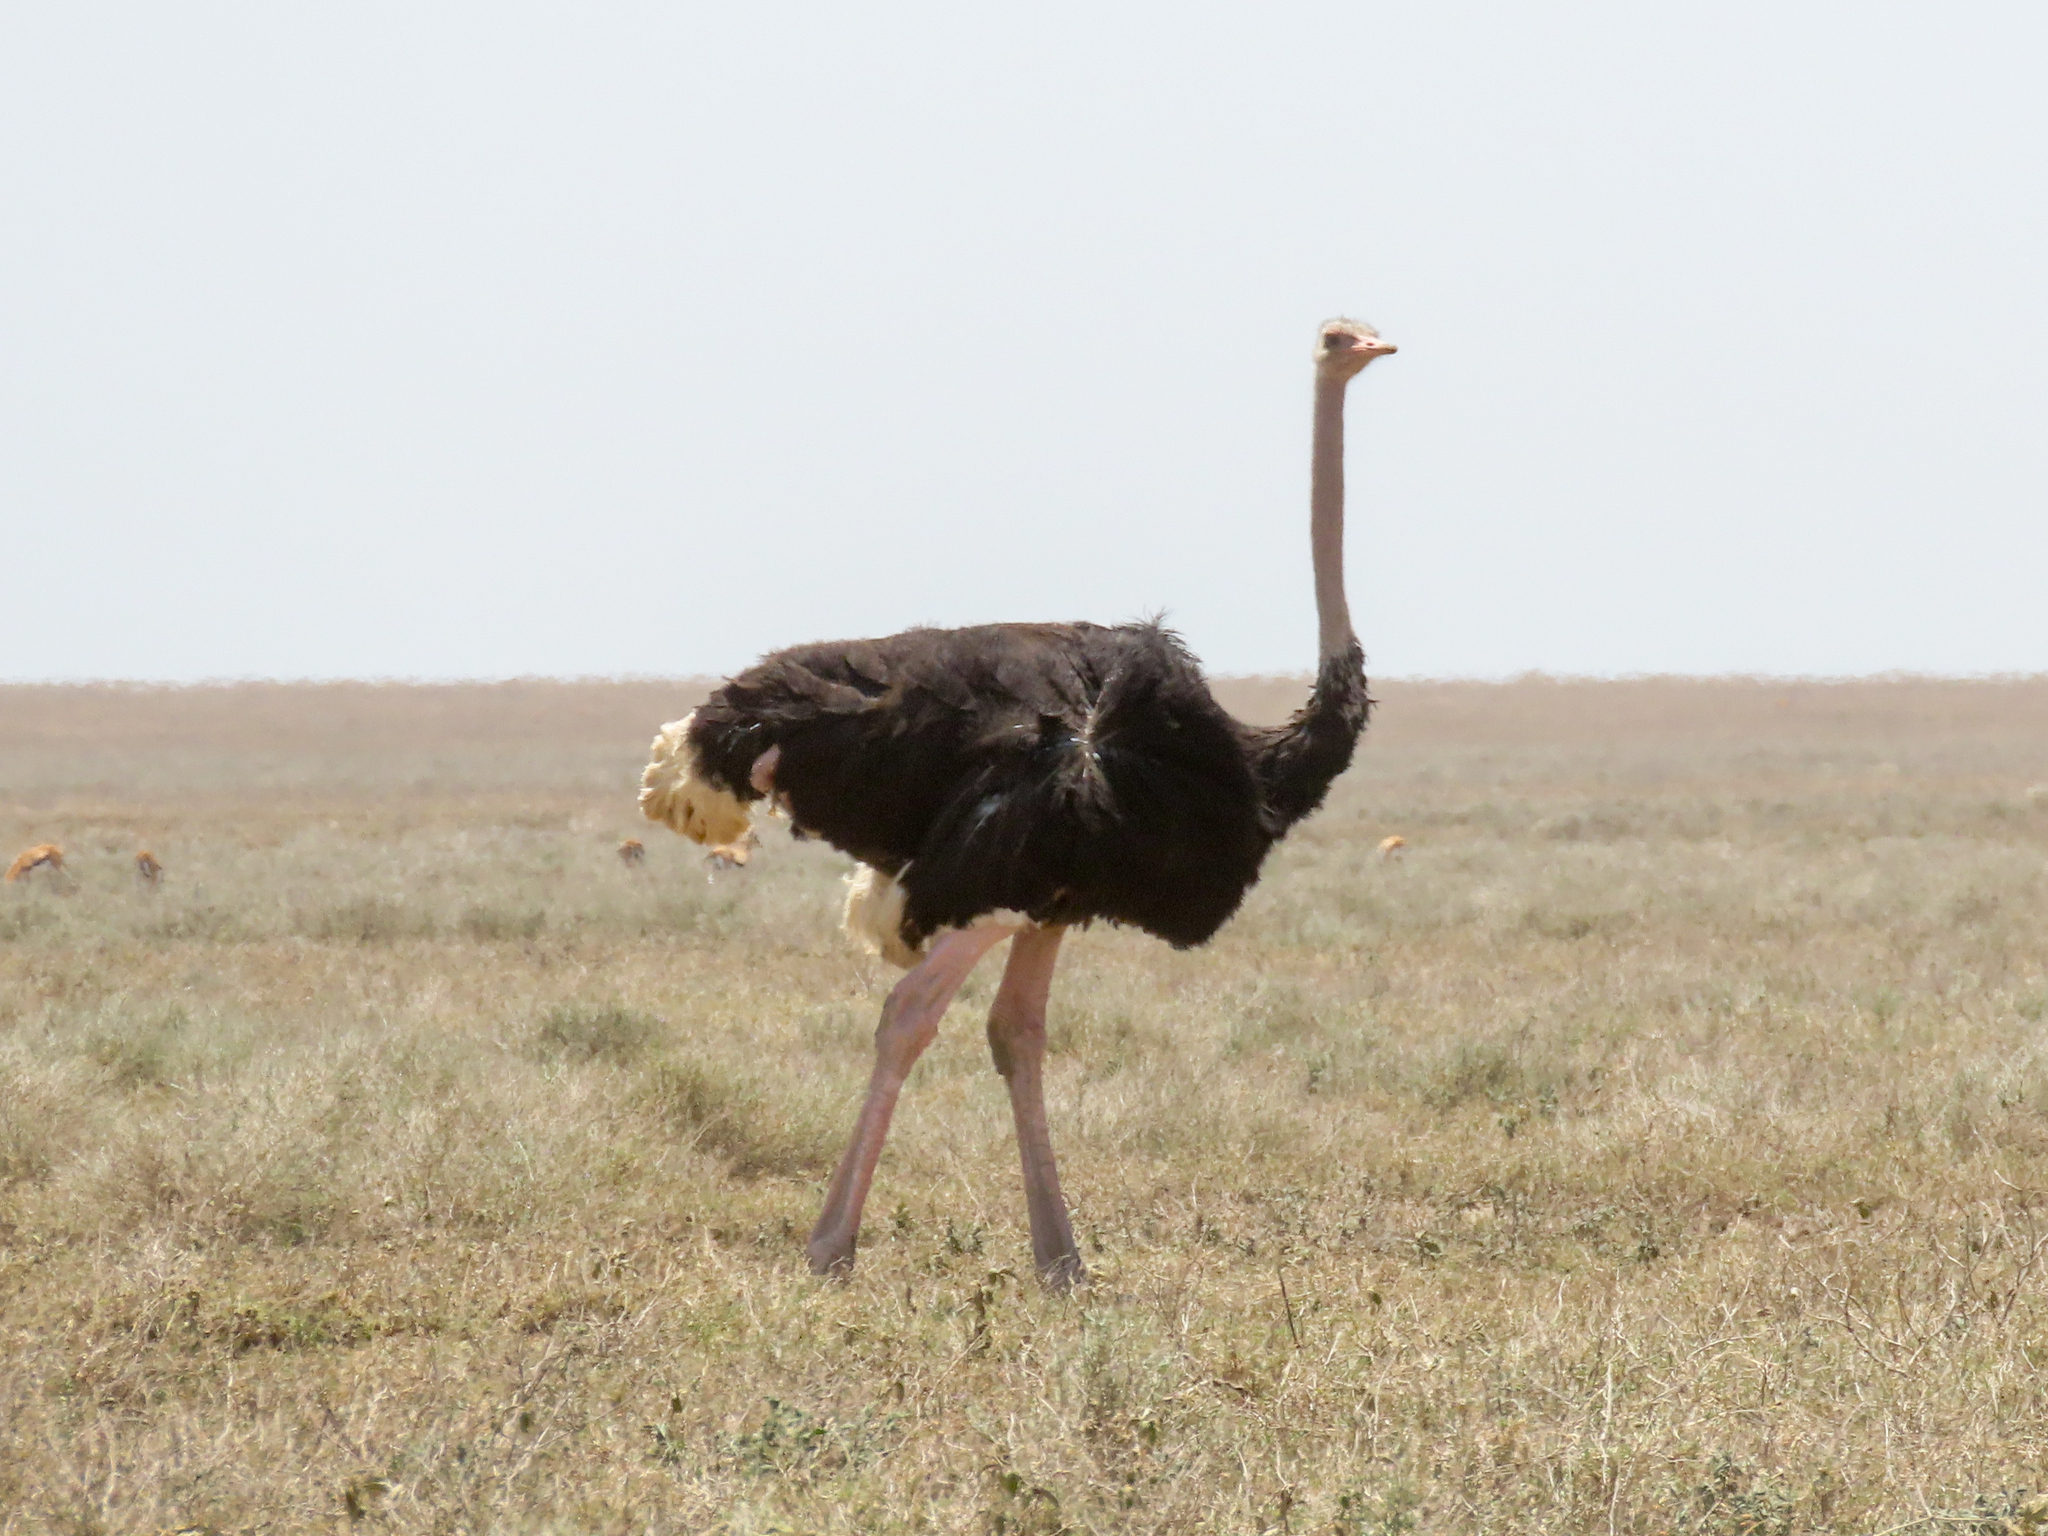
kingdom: Animalia
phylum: Chordata
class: Aves
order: Struthioniformes
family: Struthionidae
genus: Struthio
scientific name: Struthio camelus
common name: Common ostrich
